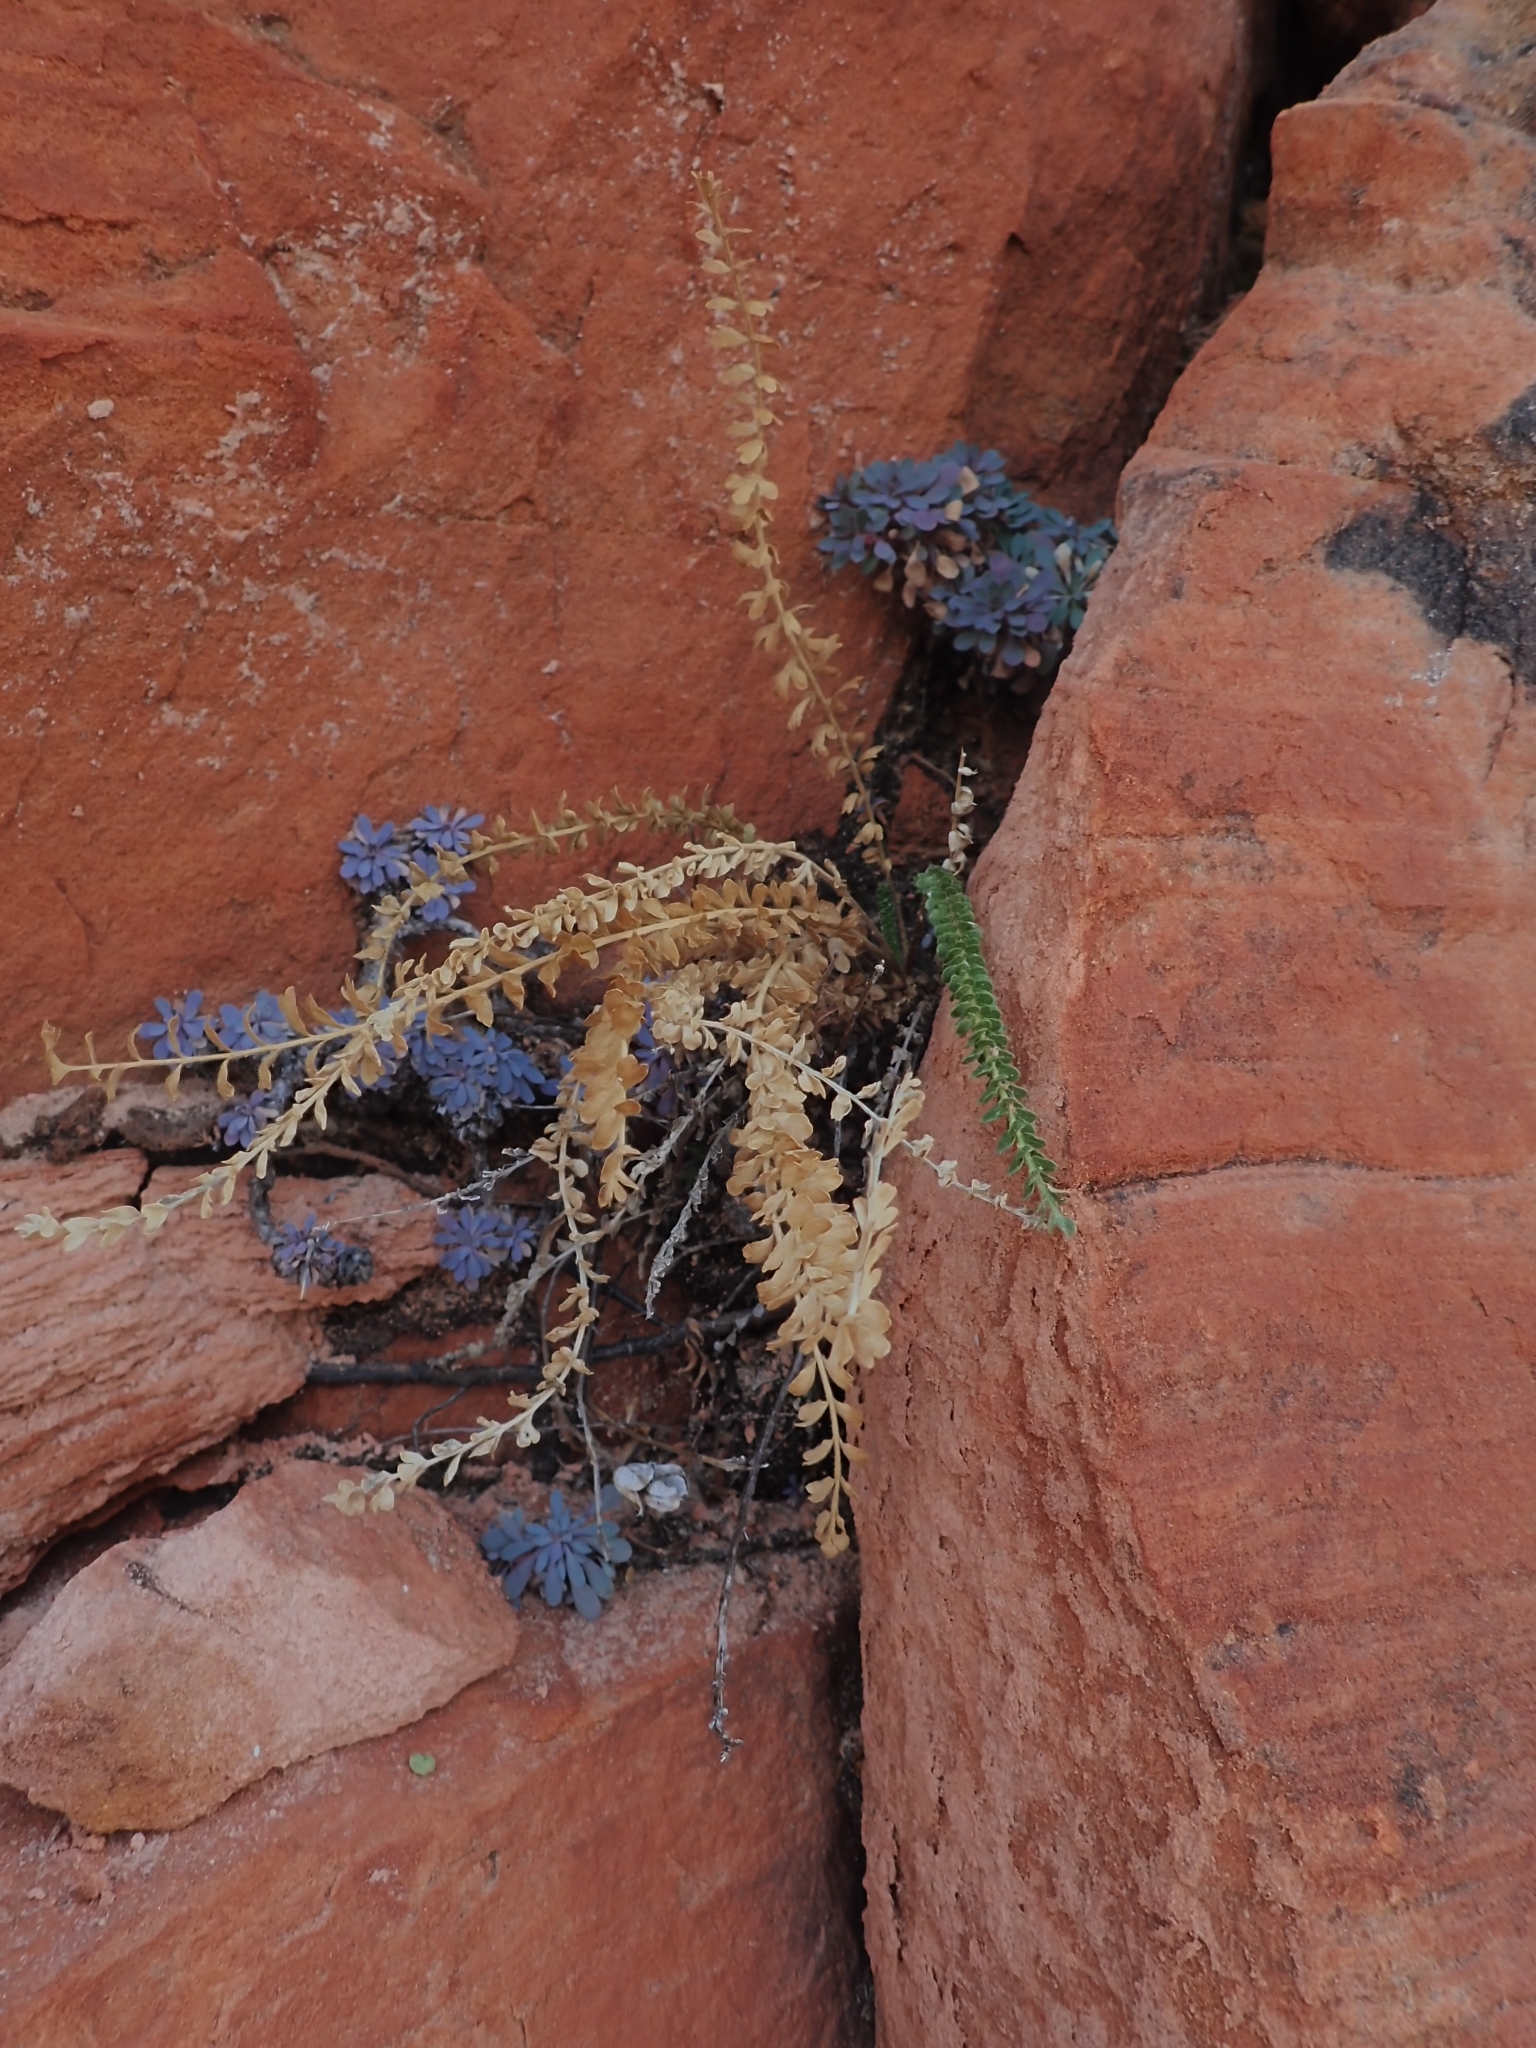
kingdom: Plantae
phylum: Tracheophyta
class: Magnoliopsida
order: Rosales
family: Rosaceae
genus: Potentilla
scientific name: Potentilla sabulosa
